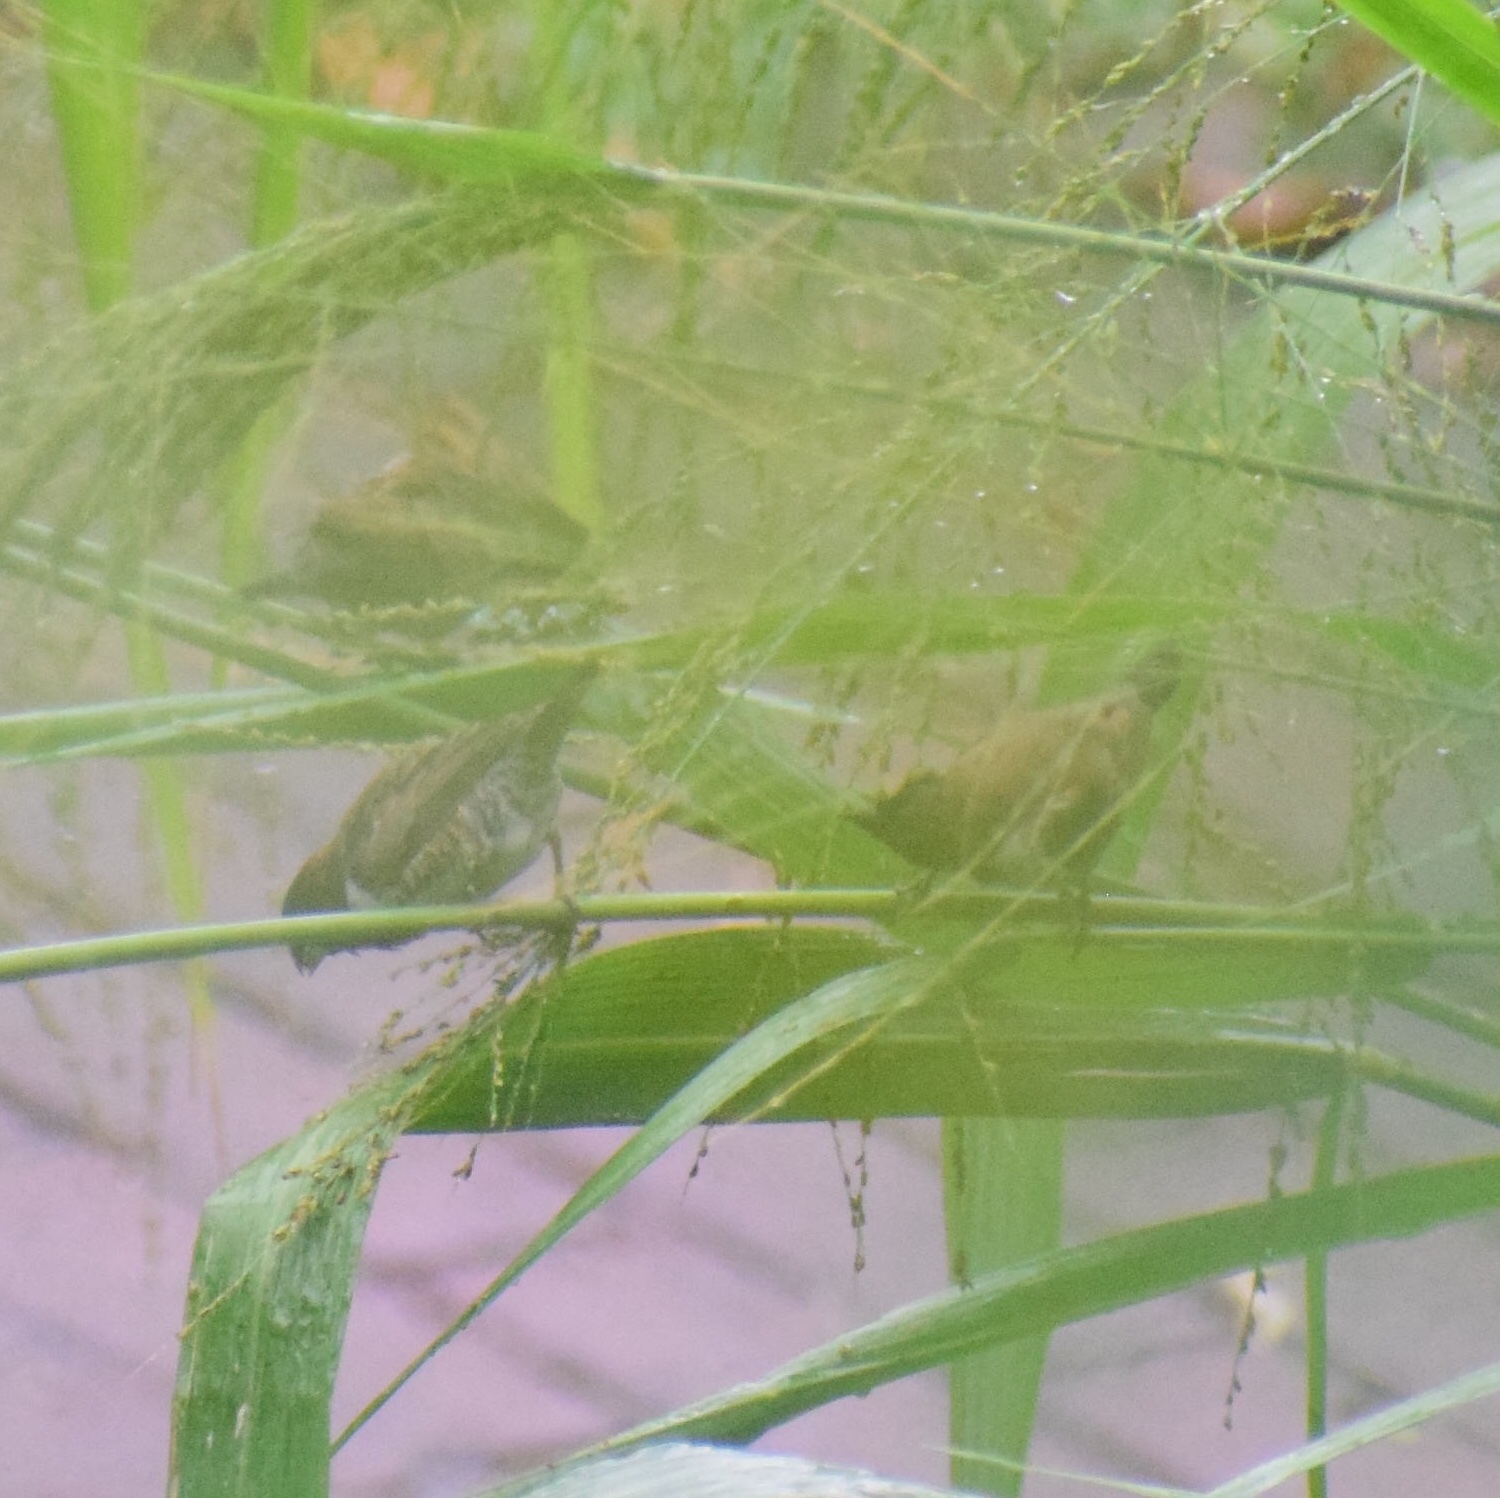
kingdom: Animalia
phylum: Chordata
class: Aves
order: Passeriformes
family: Estrildidae
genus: Lonchura
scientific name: Lonchura cucullata
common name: Bronze mannikin
